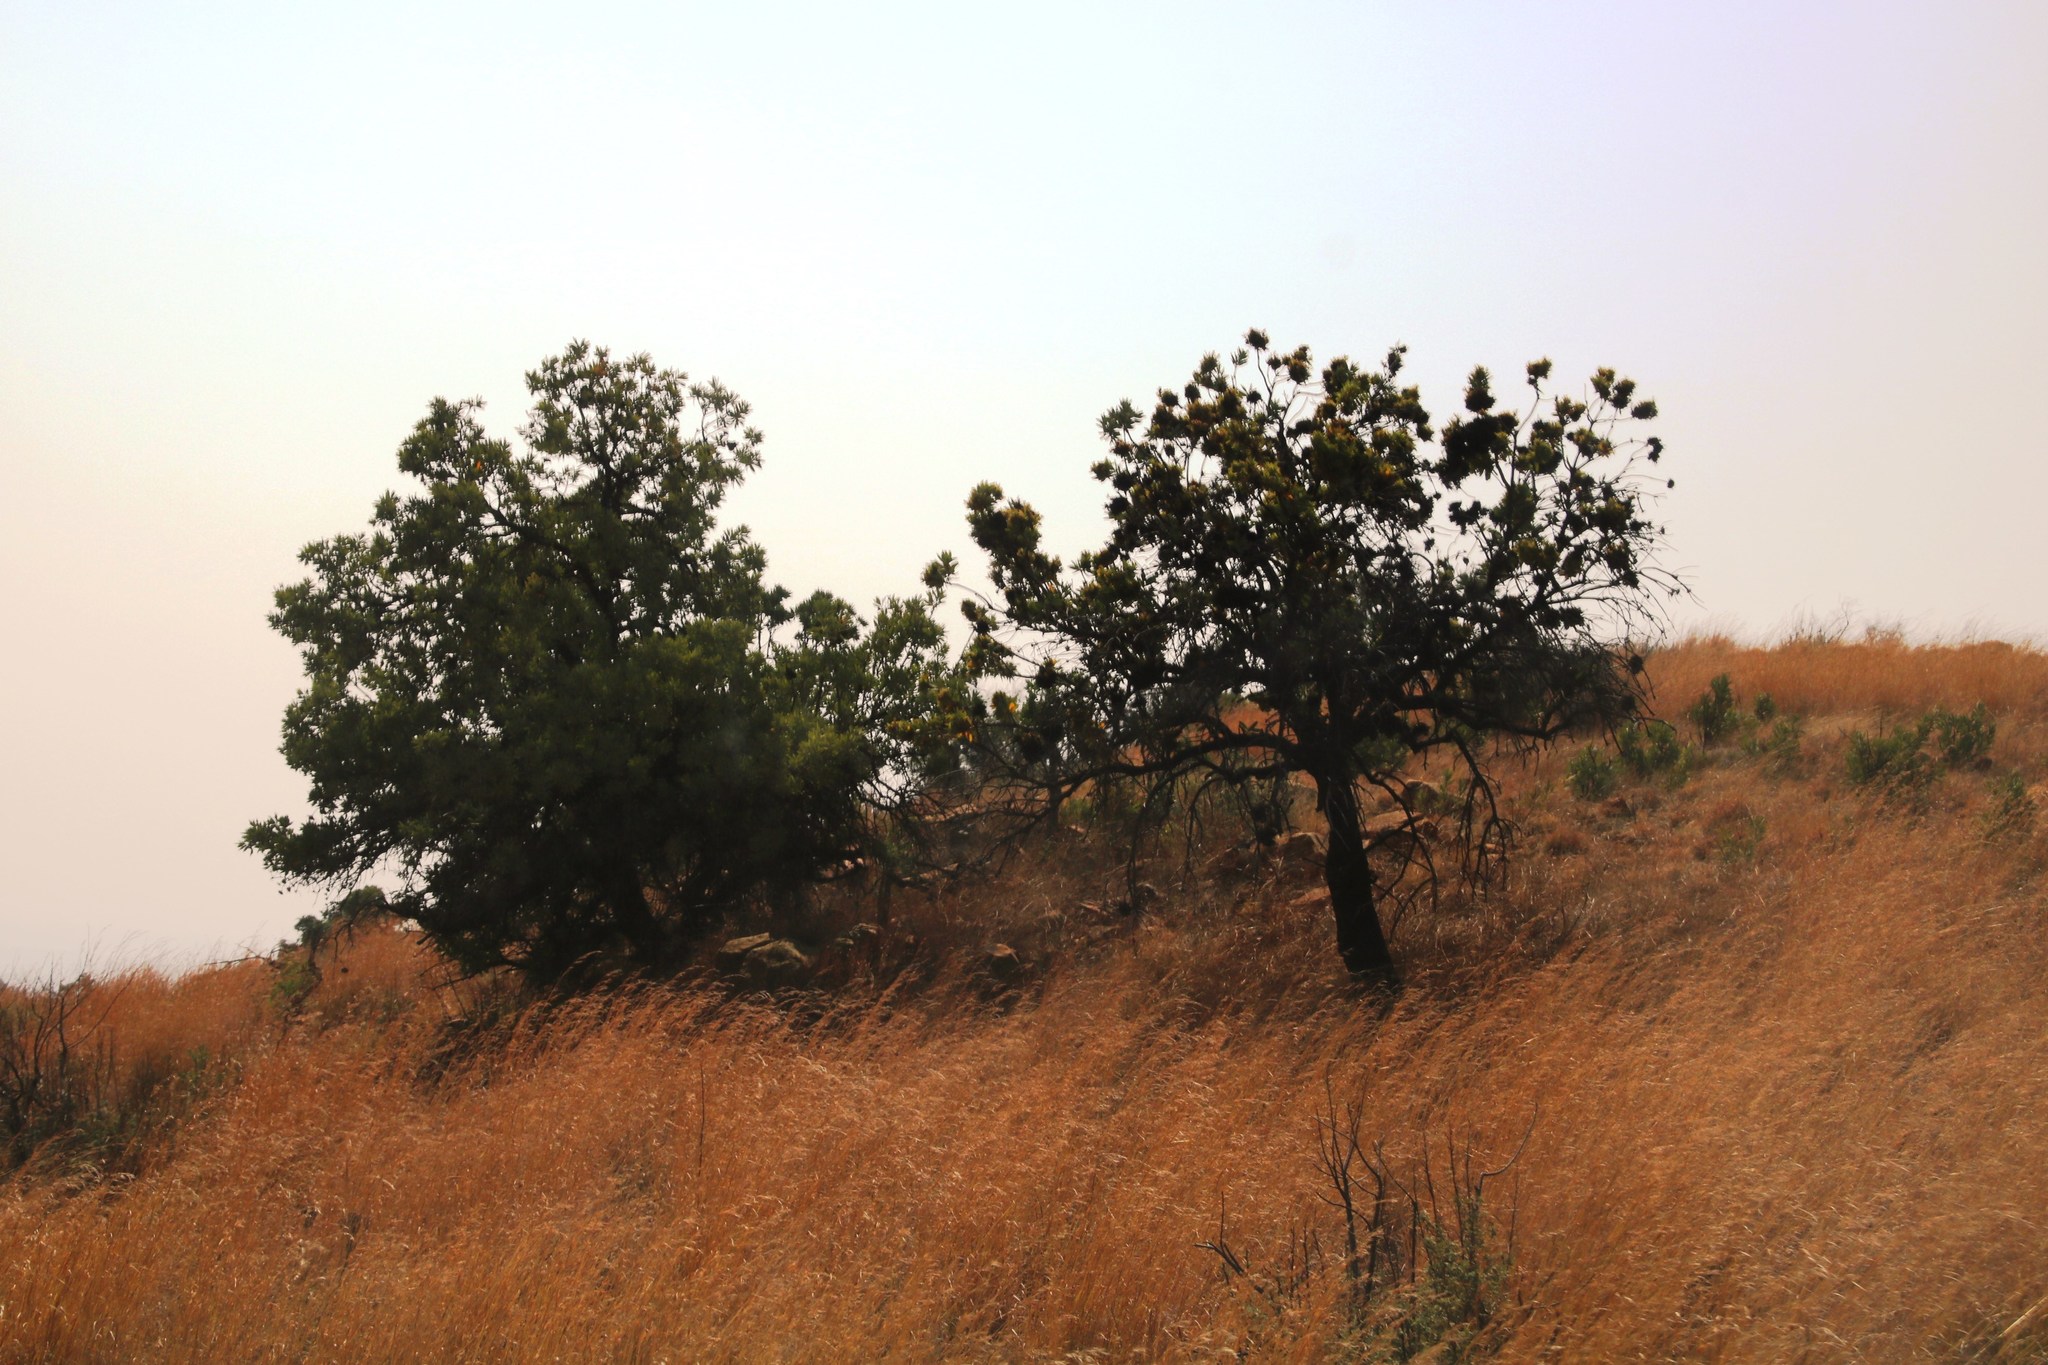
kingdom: Plantae
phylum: Tracheophyta
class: Magnoliopsida
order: Proteales
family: Proteaceae
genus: Protea
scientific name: Protea caffra
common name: Common sugarbush
